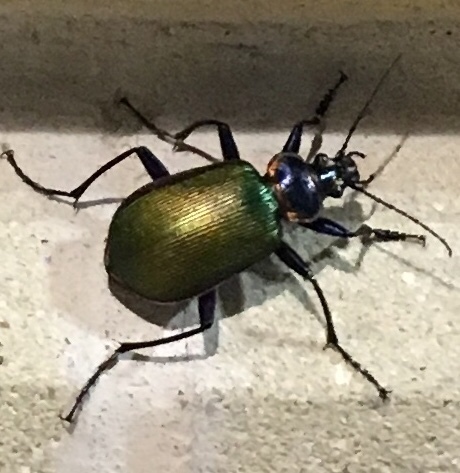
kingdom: Animalia
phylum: Arthropoda
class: Insecta
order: Coleoptera
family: Carabidae
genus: Calosoma
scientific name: Calosoma scrutator
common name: Fiery searcher beetle
